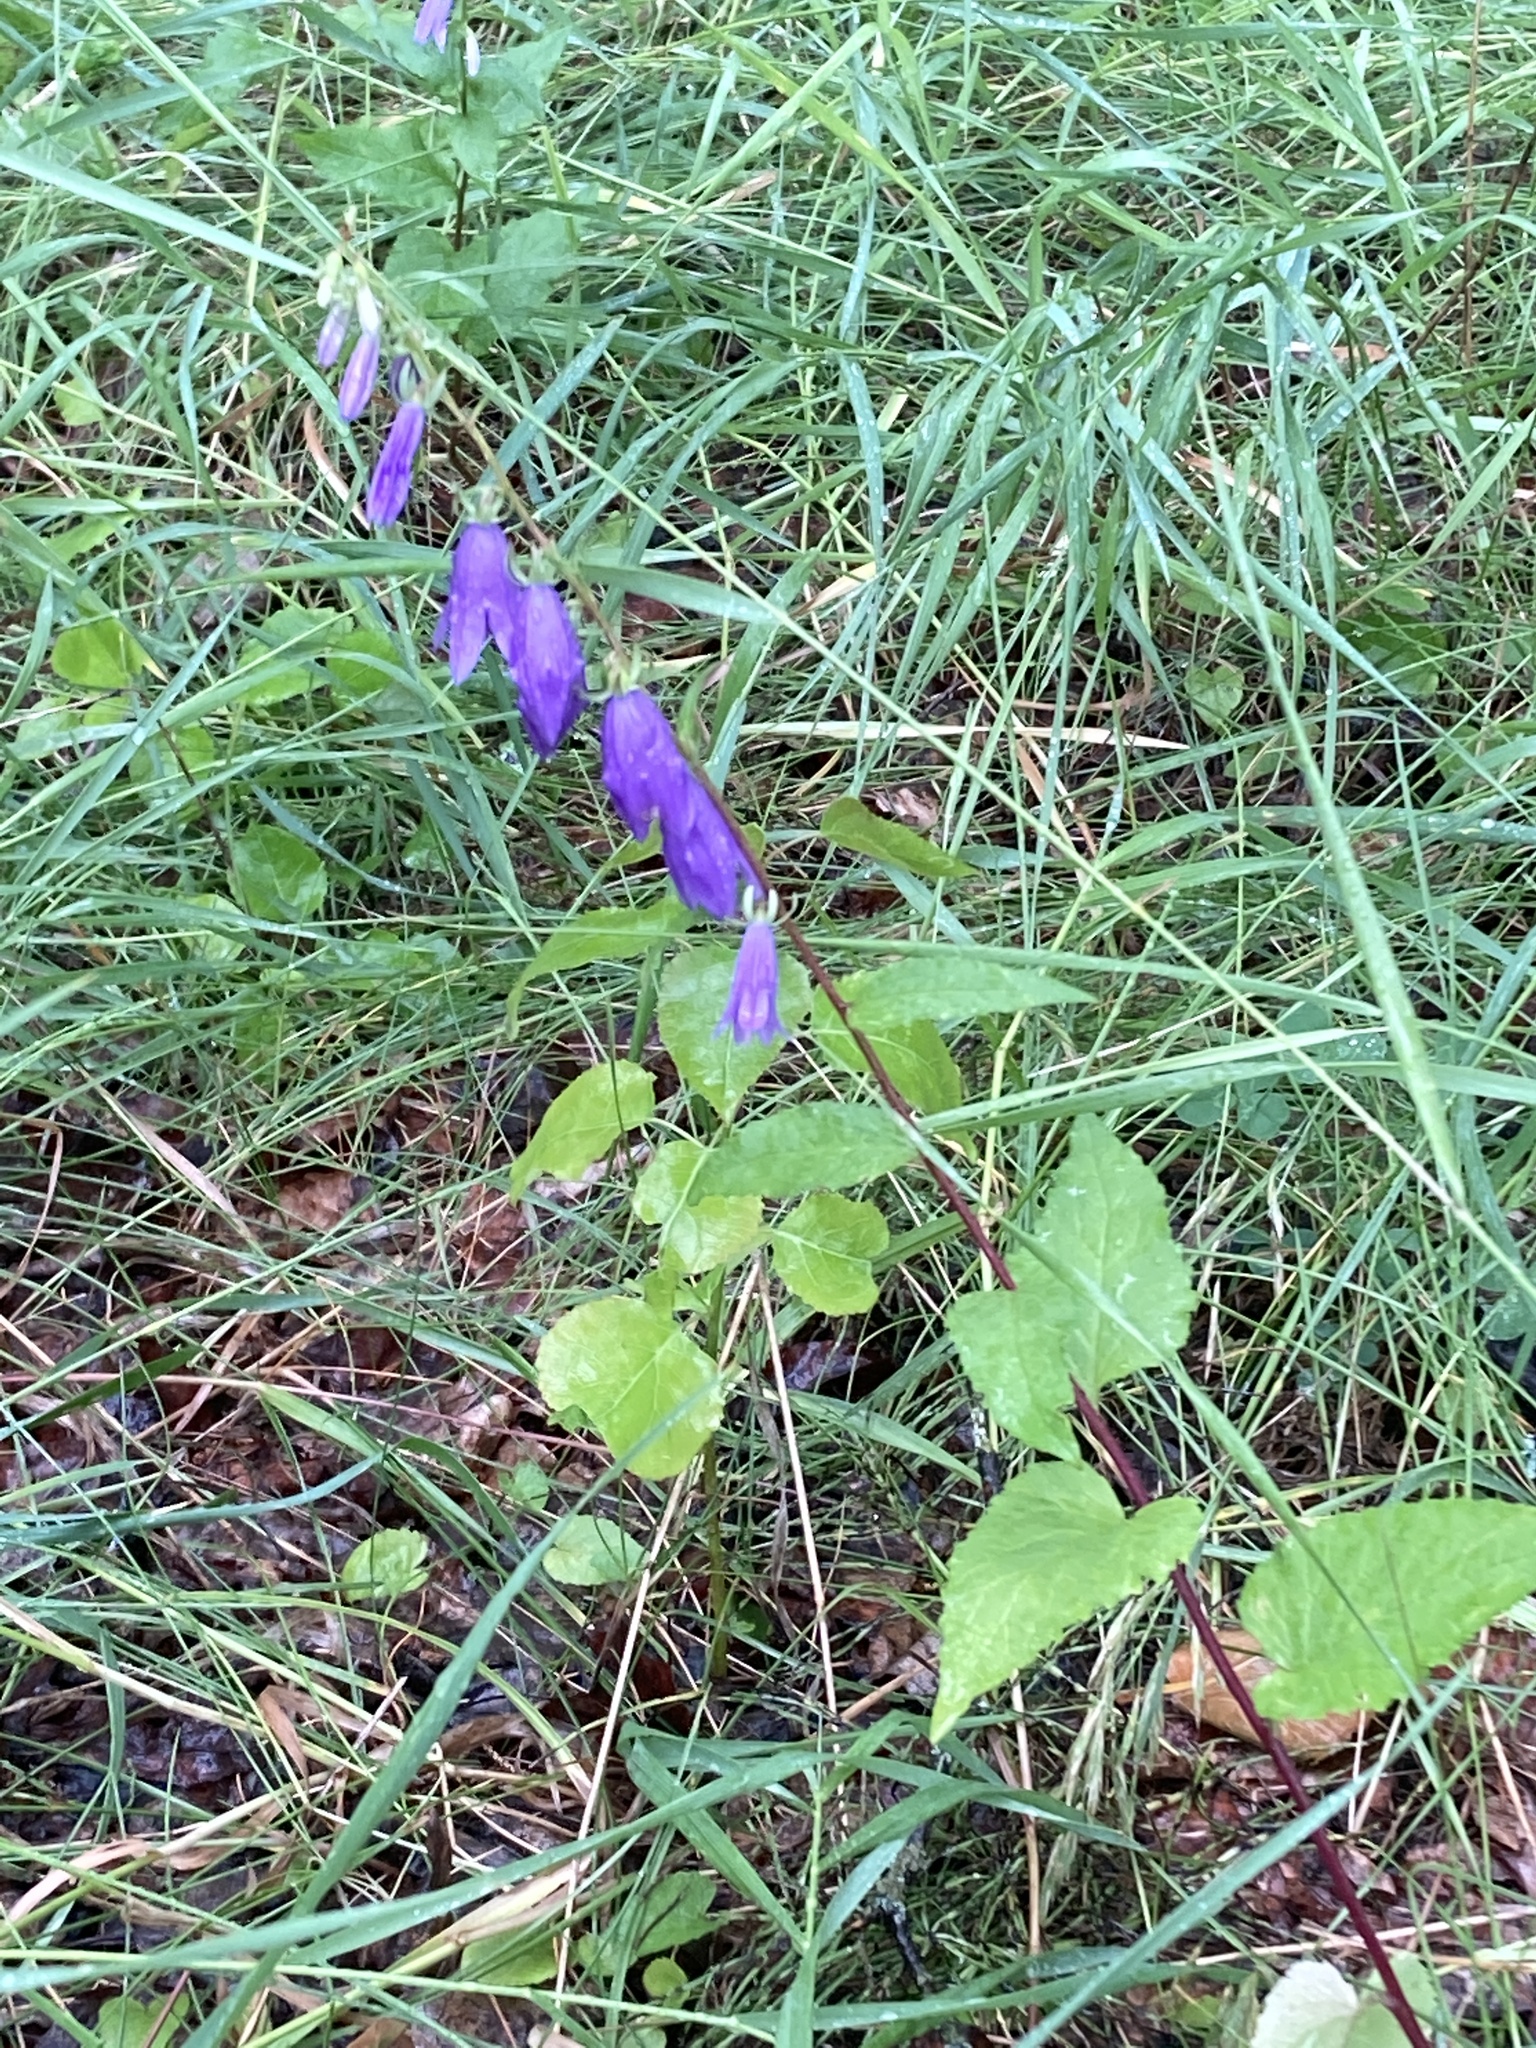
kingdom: Plantae
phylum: Tracheophyta
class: Magnoliopsida
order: Asterales
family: Campanulaceae
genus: Campanula
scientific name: Campanula rapunculoides
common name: Creeping bellflower
